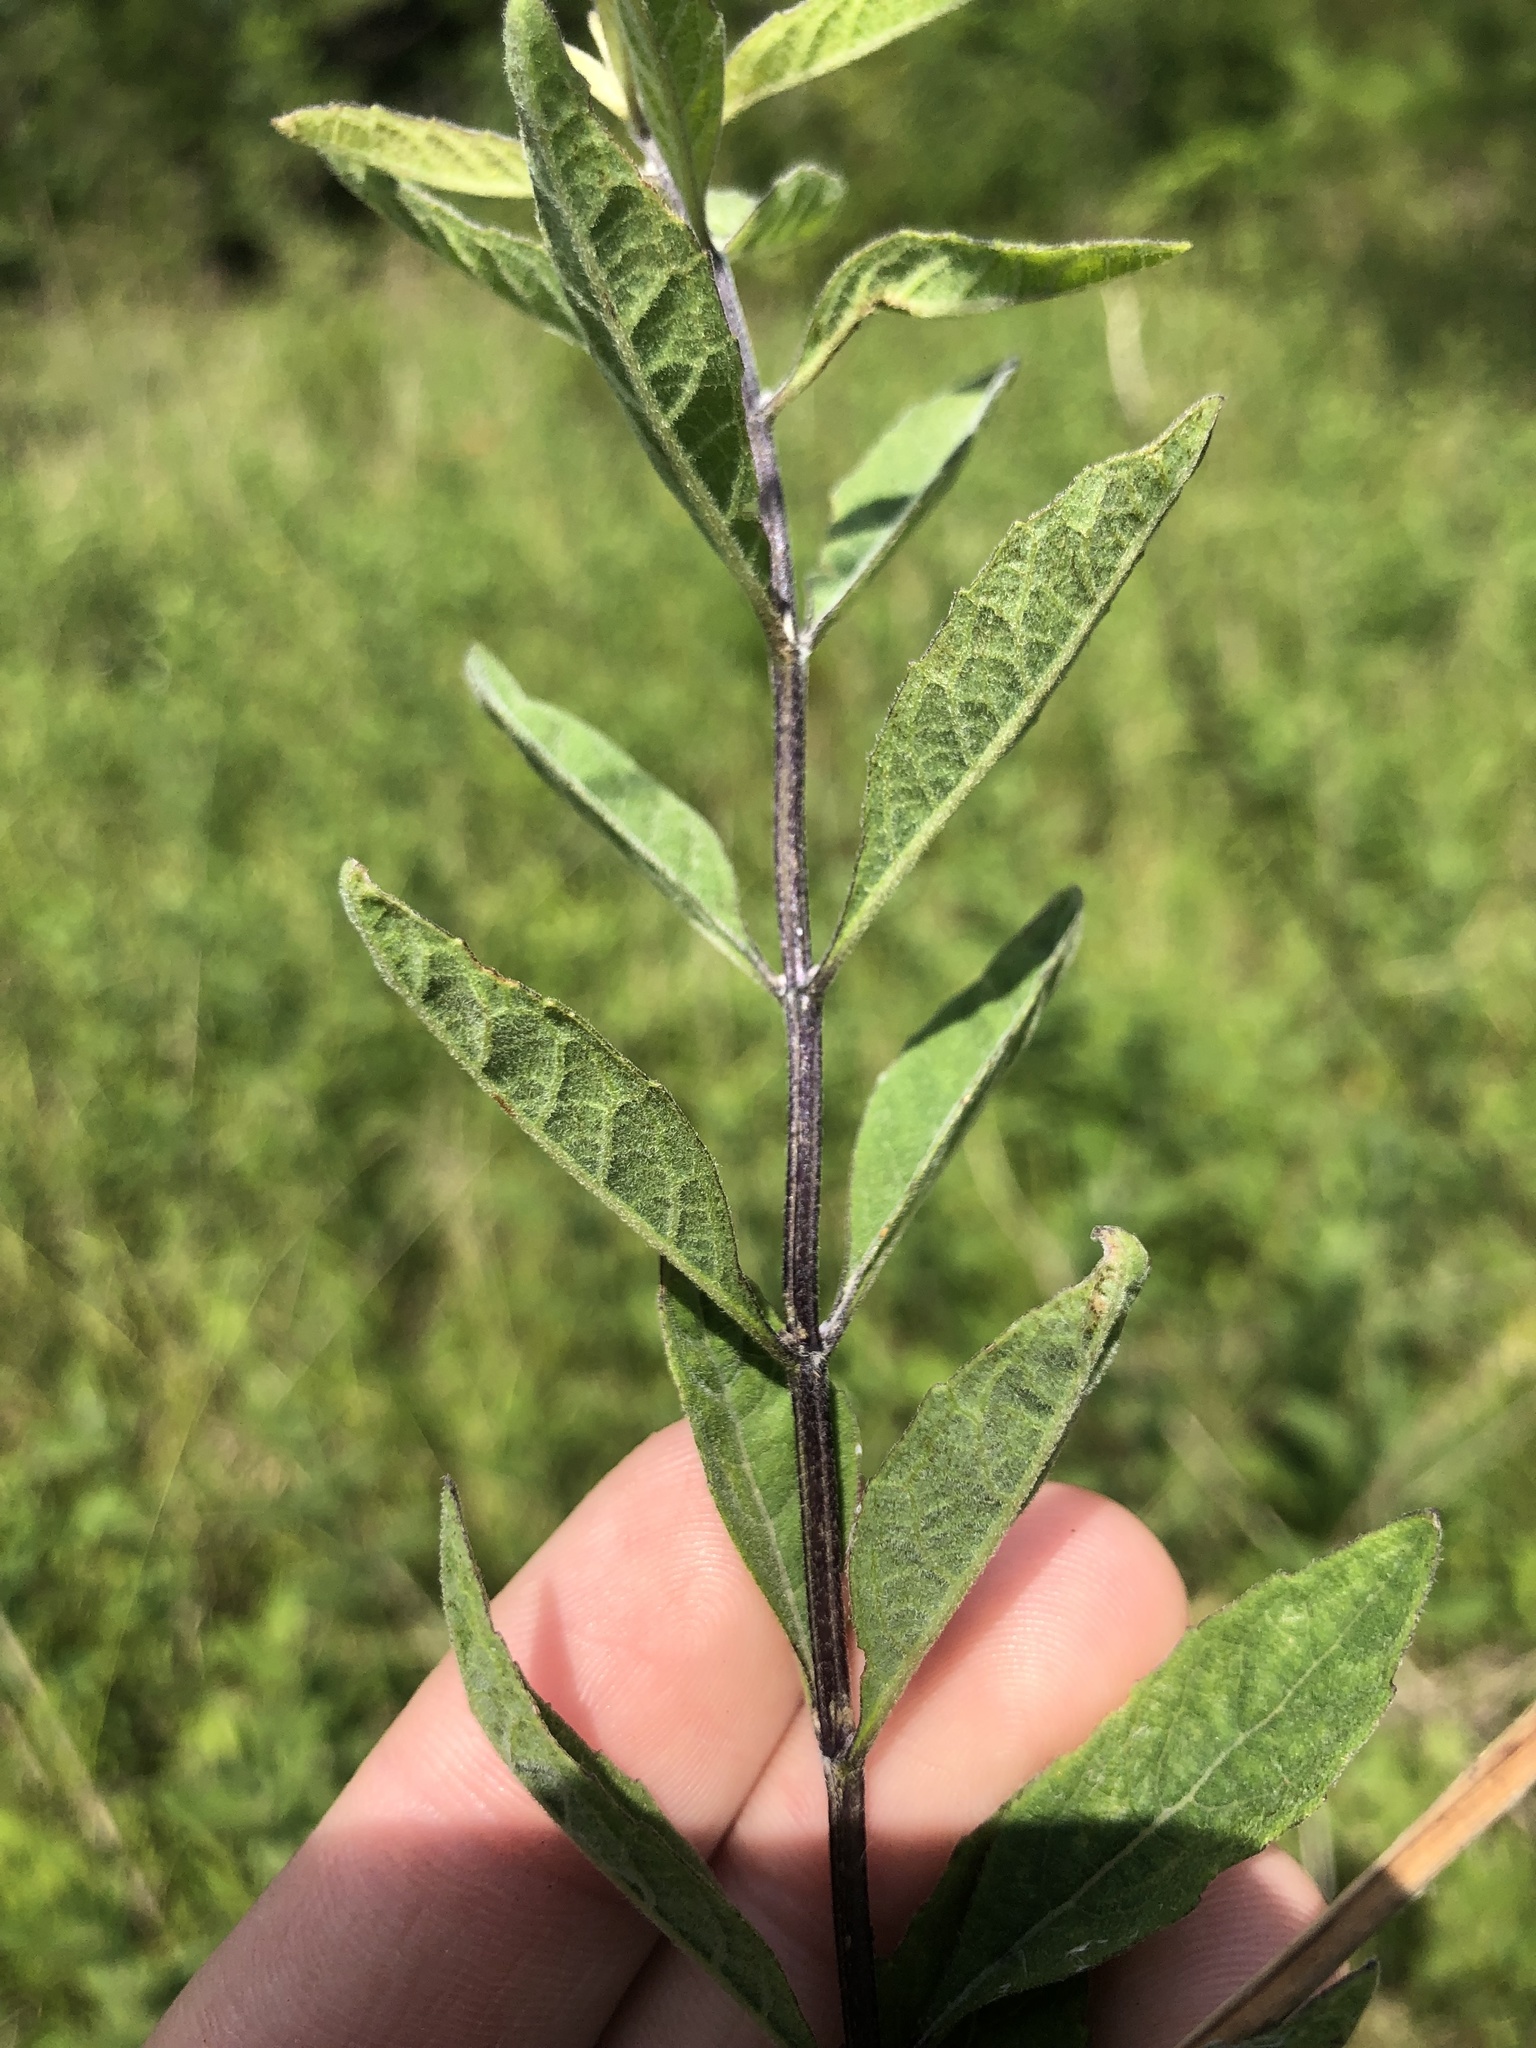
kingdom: Plantae
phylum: Tracheophyta
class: Magnoliopsida
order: Lamiales
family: Lamiaceae
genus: Salvia
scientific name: Salvia azurea
